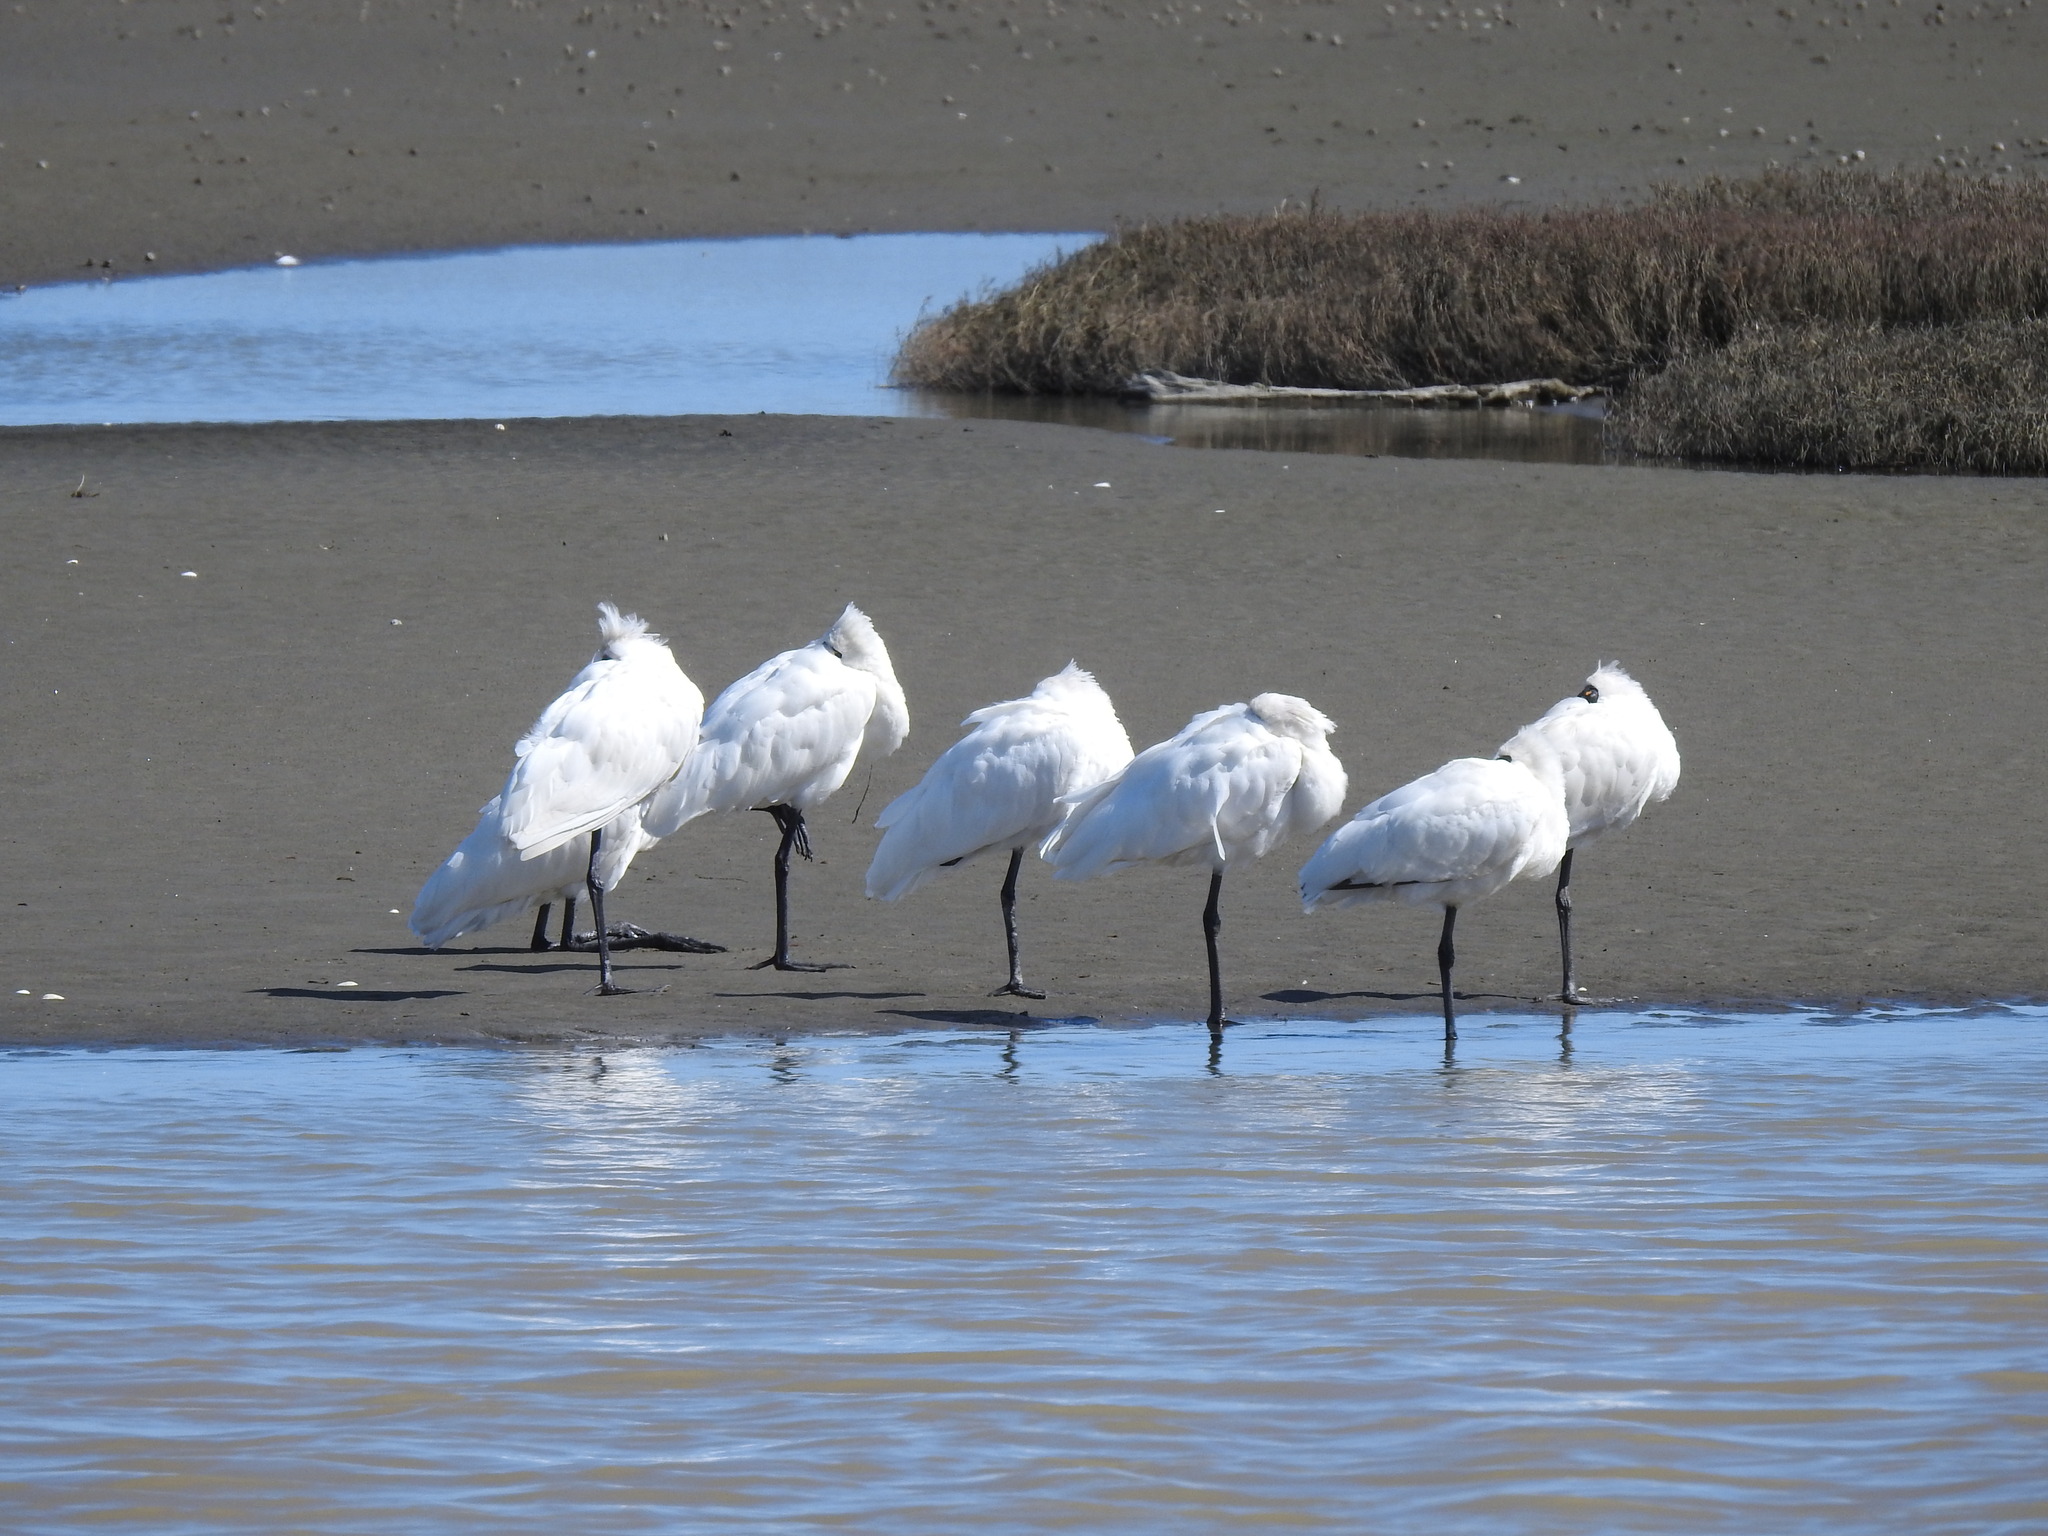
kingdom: Animalia
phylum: Chordata
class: Aves
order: Pelecaniformes
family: Threskiornithidae
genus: Platalea
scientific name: Platalea regia
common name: Royal spoonbill
